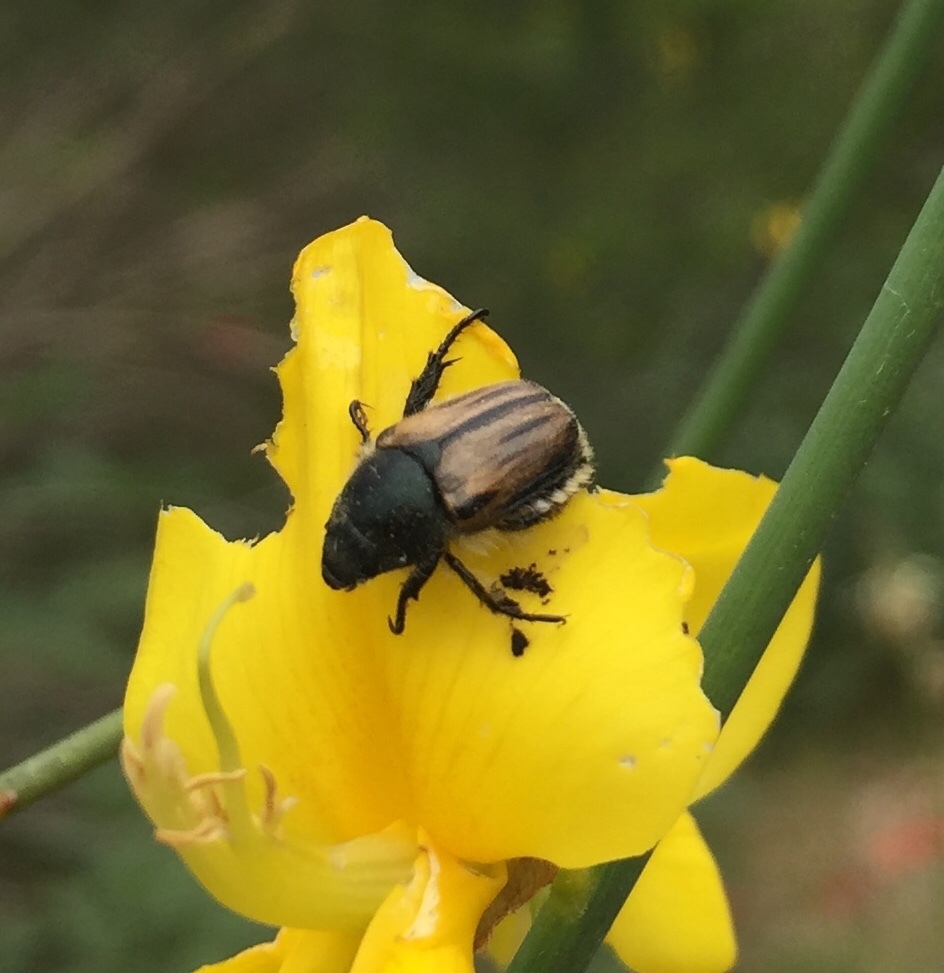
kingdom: Animalia
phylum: Arthropoda
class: Insecta
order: Coleoptera
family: Scarabaeidae
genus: Blitopertha
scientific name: Blitopertha lineolata
